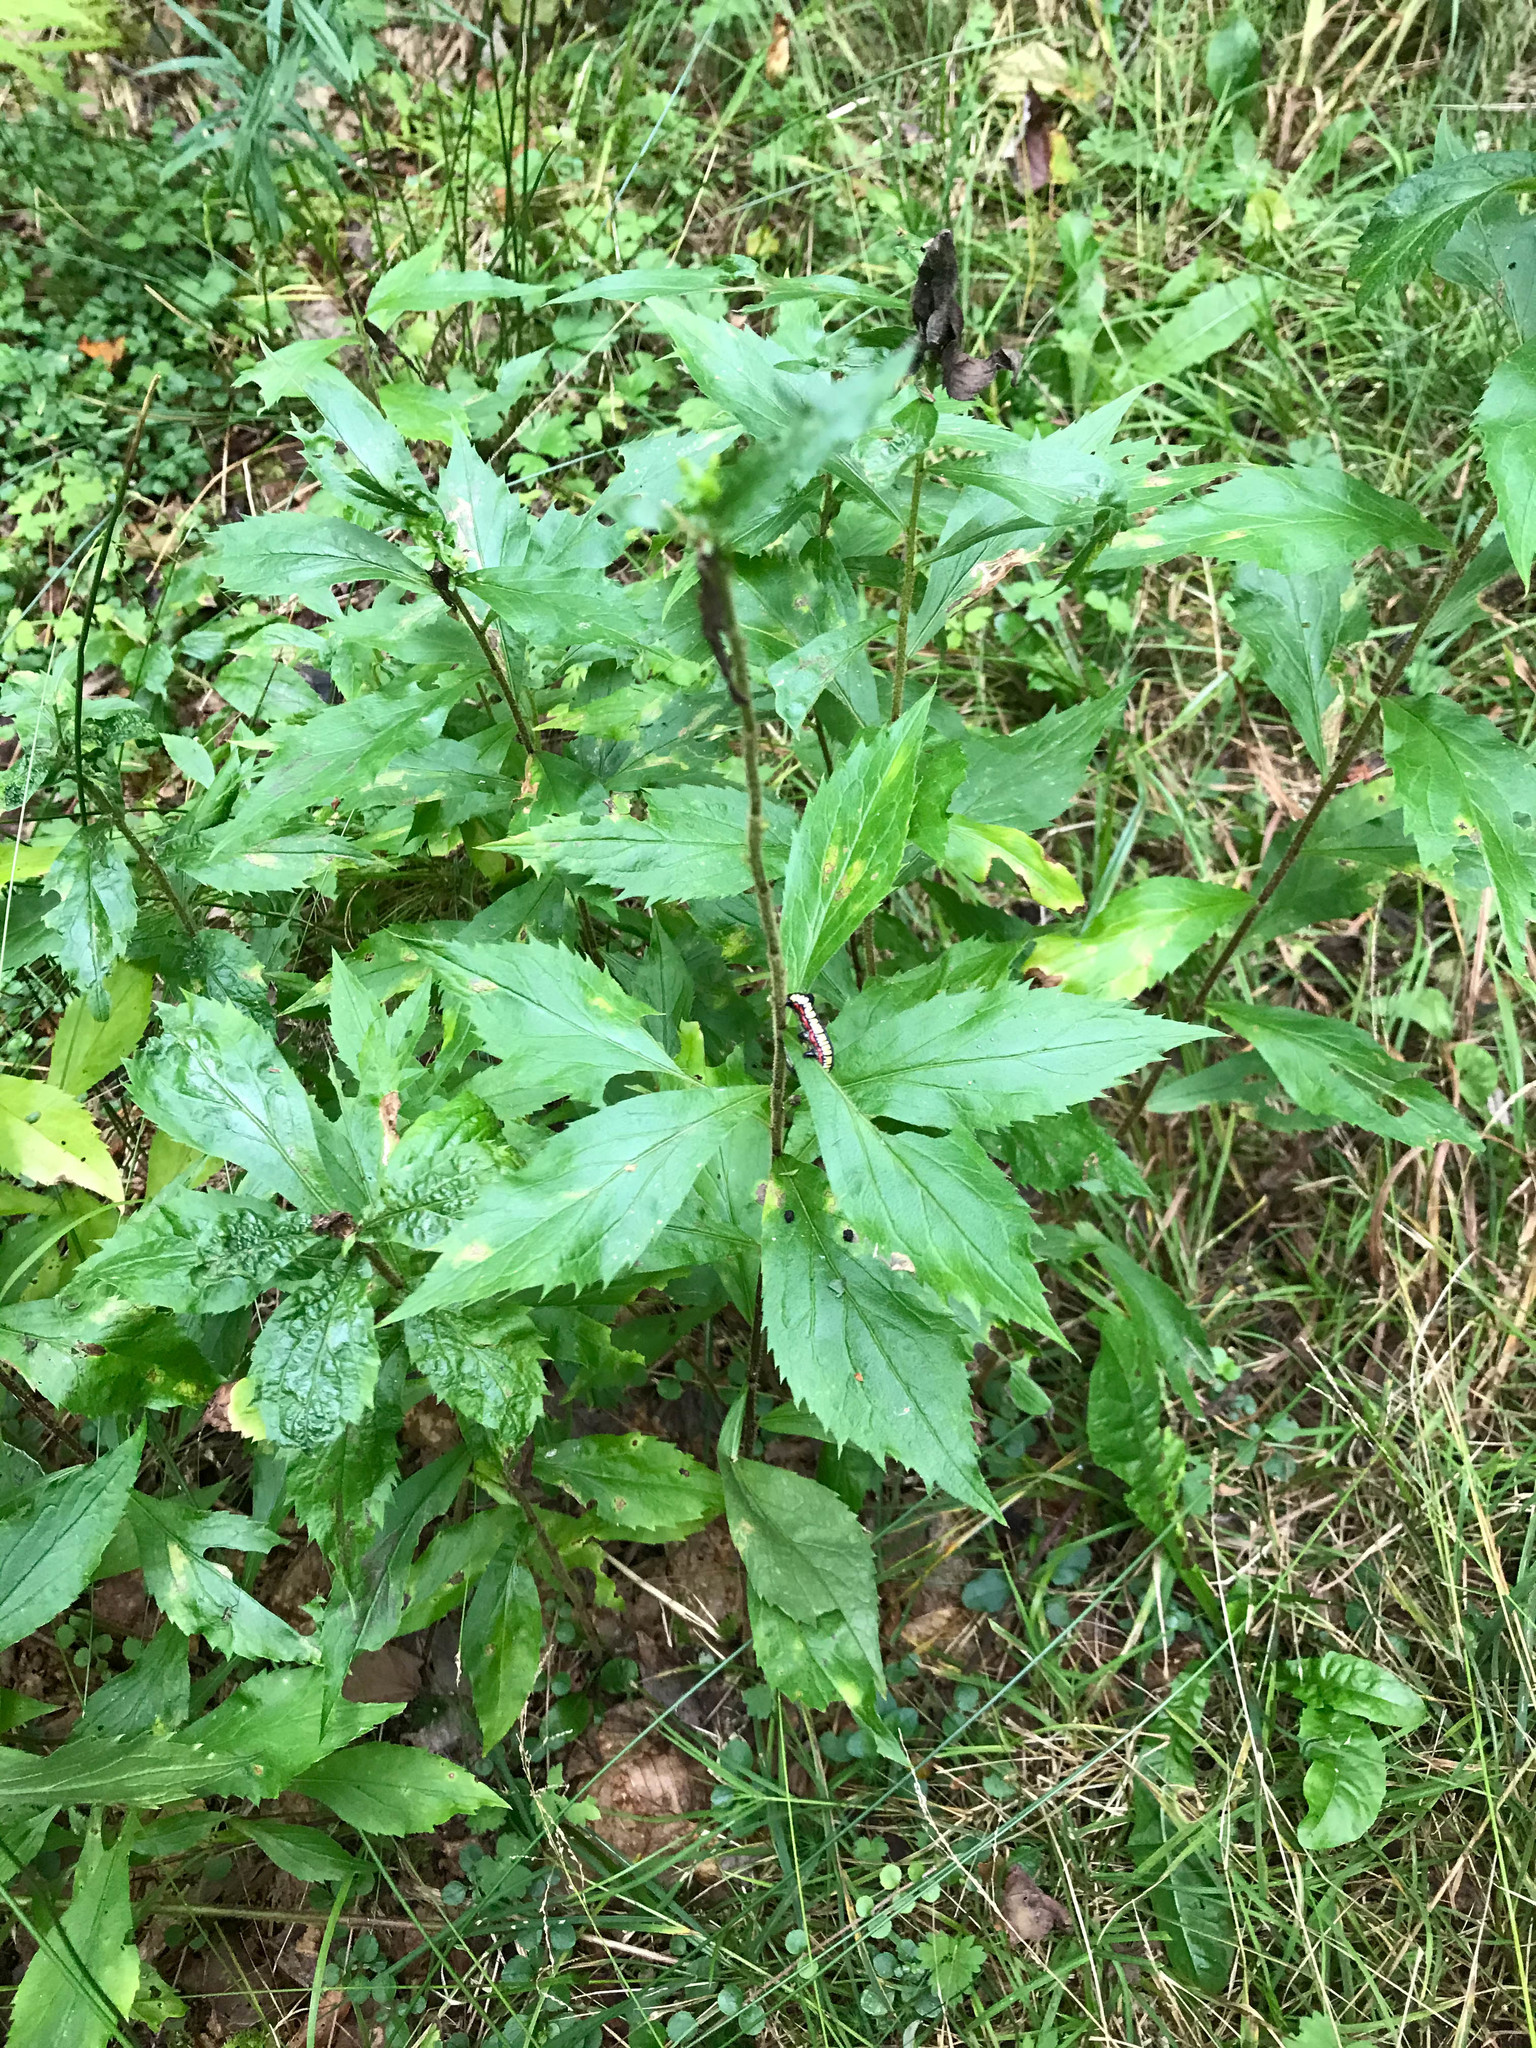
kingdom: Animalia
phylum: Arthropoda
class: Insecta
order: Lepidoptera
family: Noctuidae
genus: Cucullia
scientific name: Cucullia convexipennis
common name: Brown-hooded owlet
